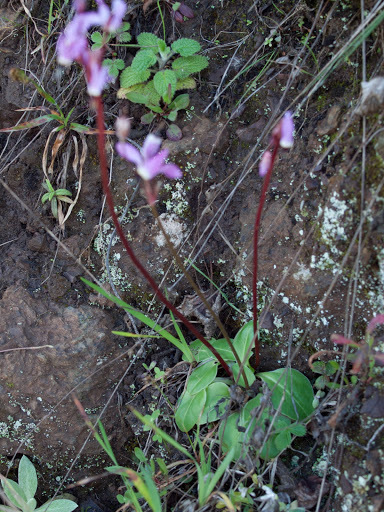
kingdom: Plantae
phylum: Tracheophyta
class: Magnoliopsida
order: Ericales
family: Primulaceae
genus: Dodecatheon
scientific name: Dodecatheon hendersonii
